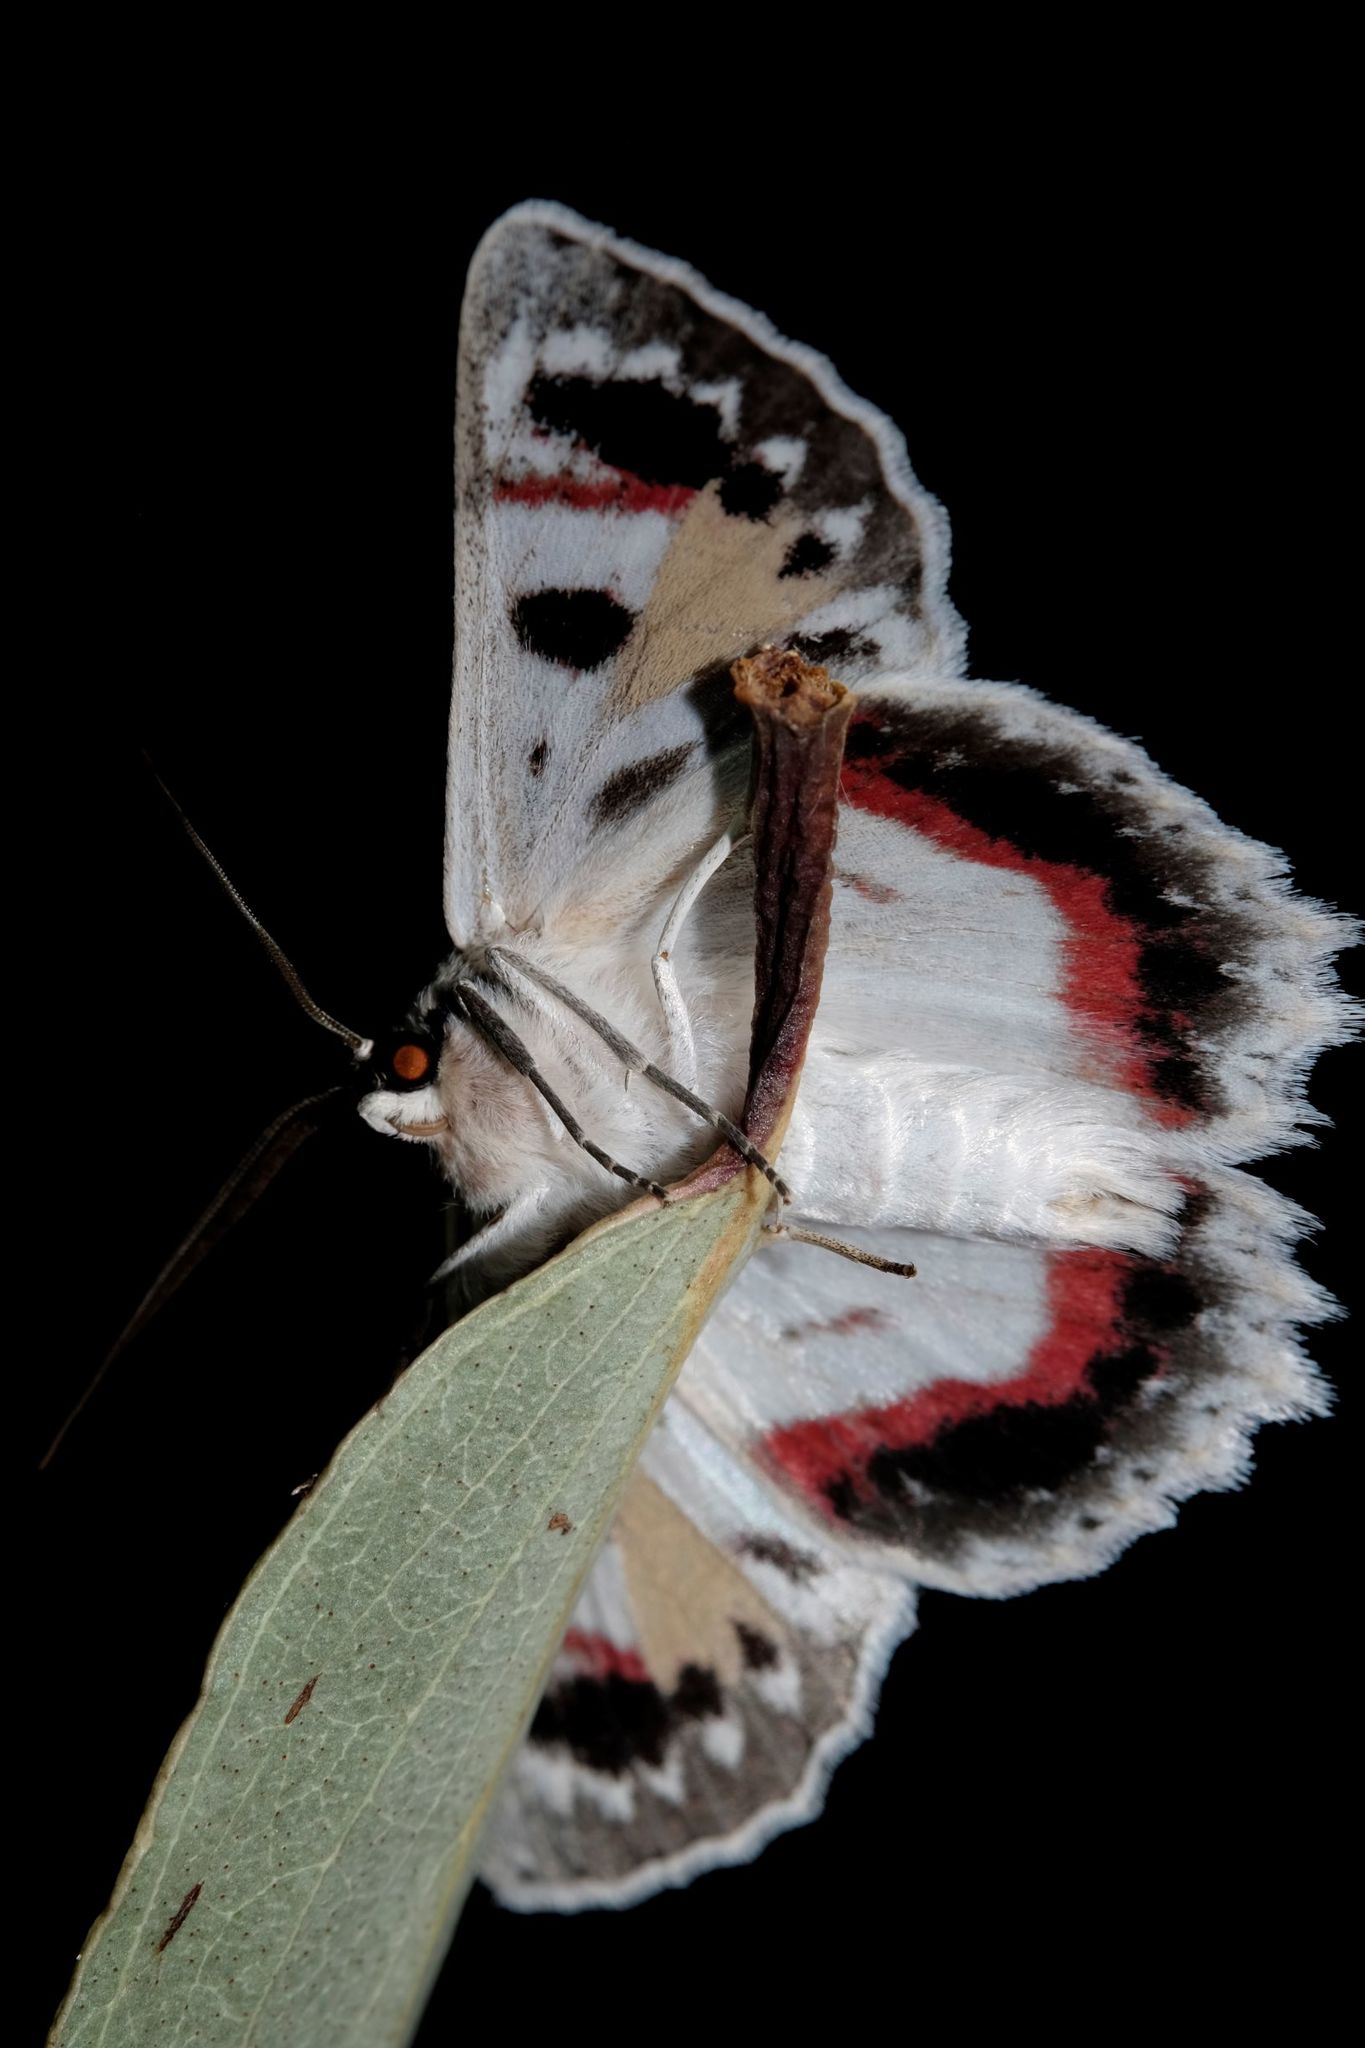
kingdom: Animalia
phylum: Arthropoda
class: Insecta
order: Lepidoptera
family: Geometridae
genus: Crypsiphona
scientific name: Crypsiphona ocultaria
